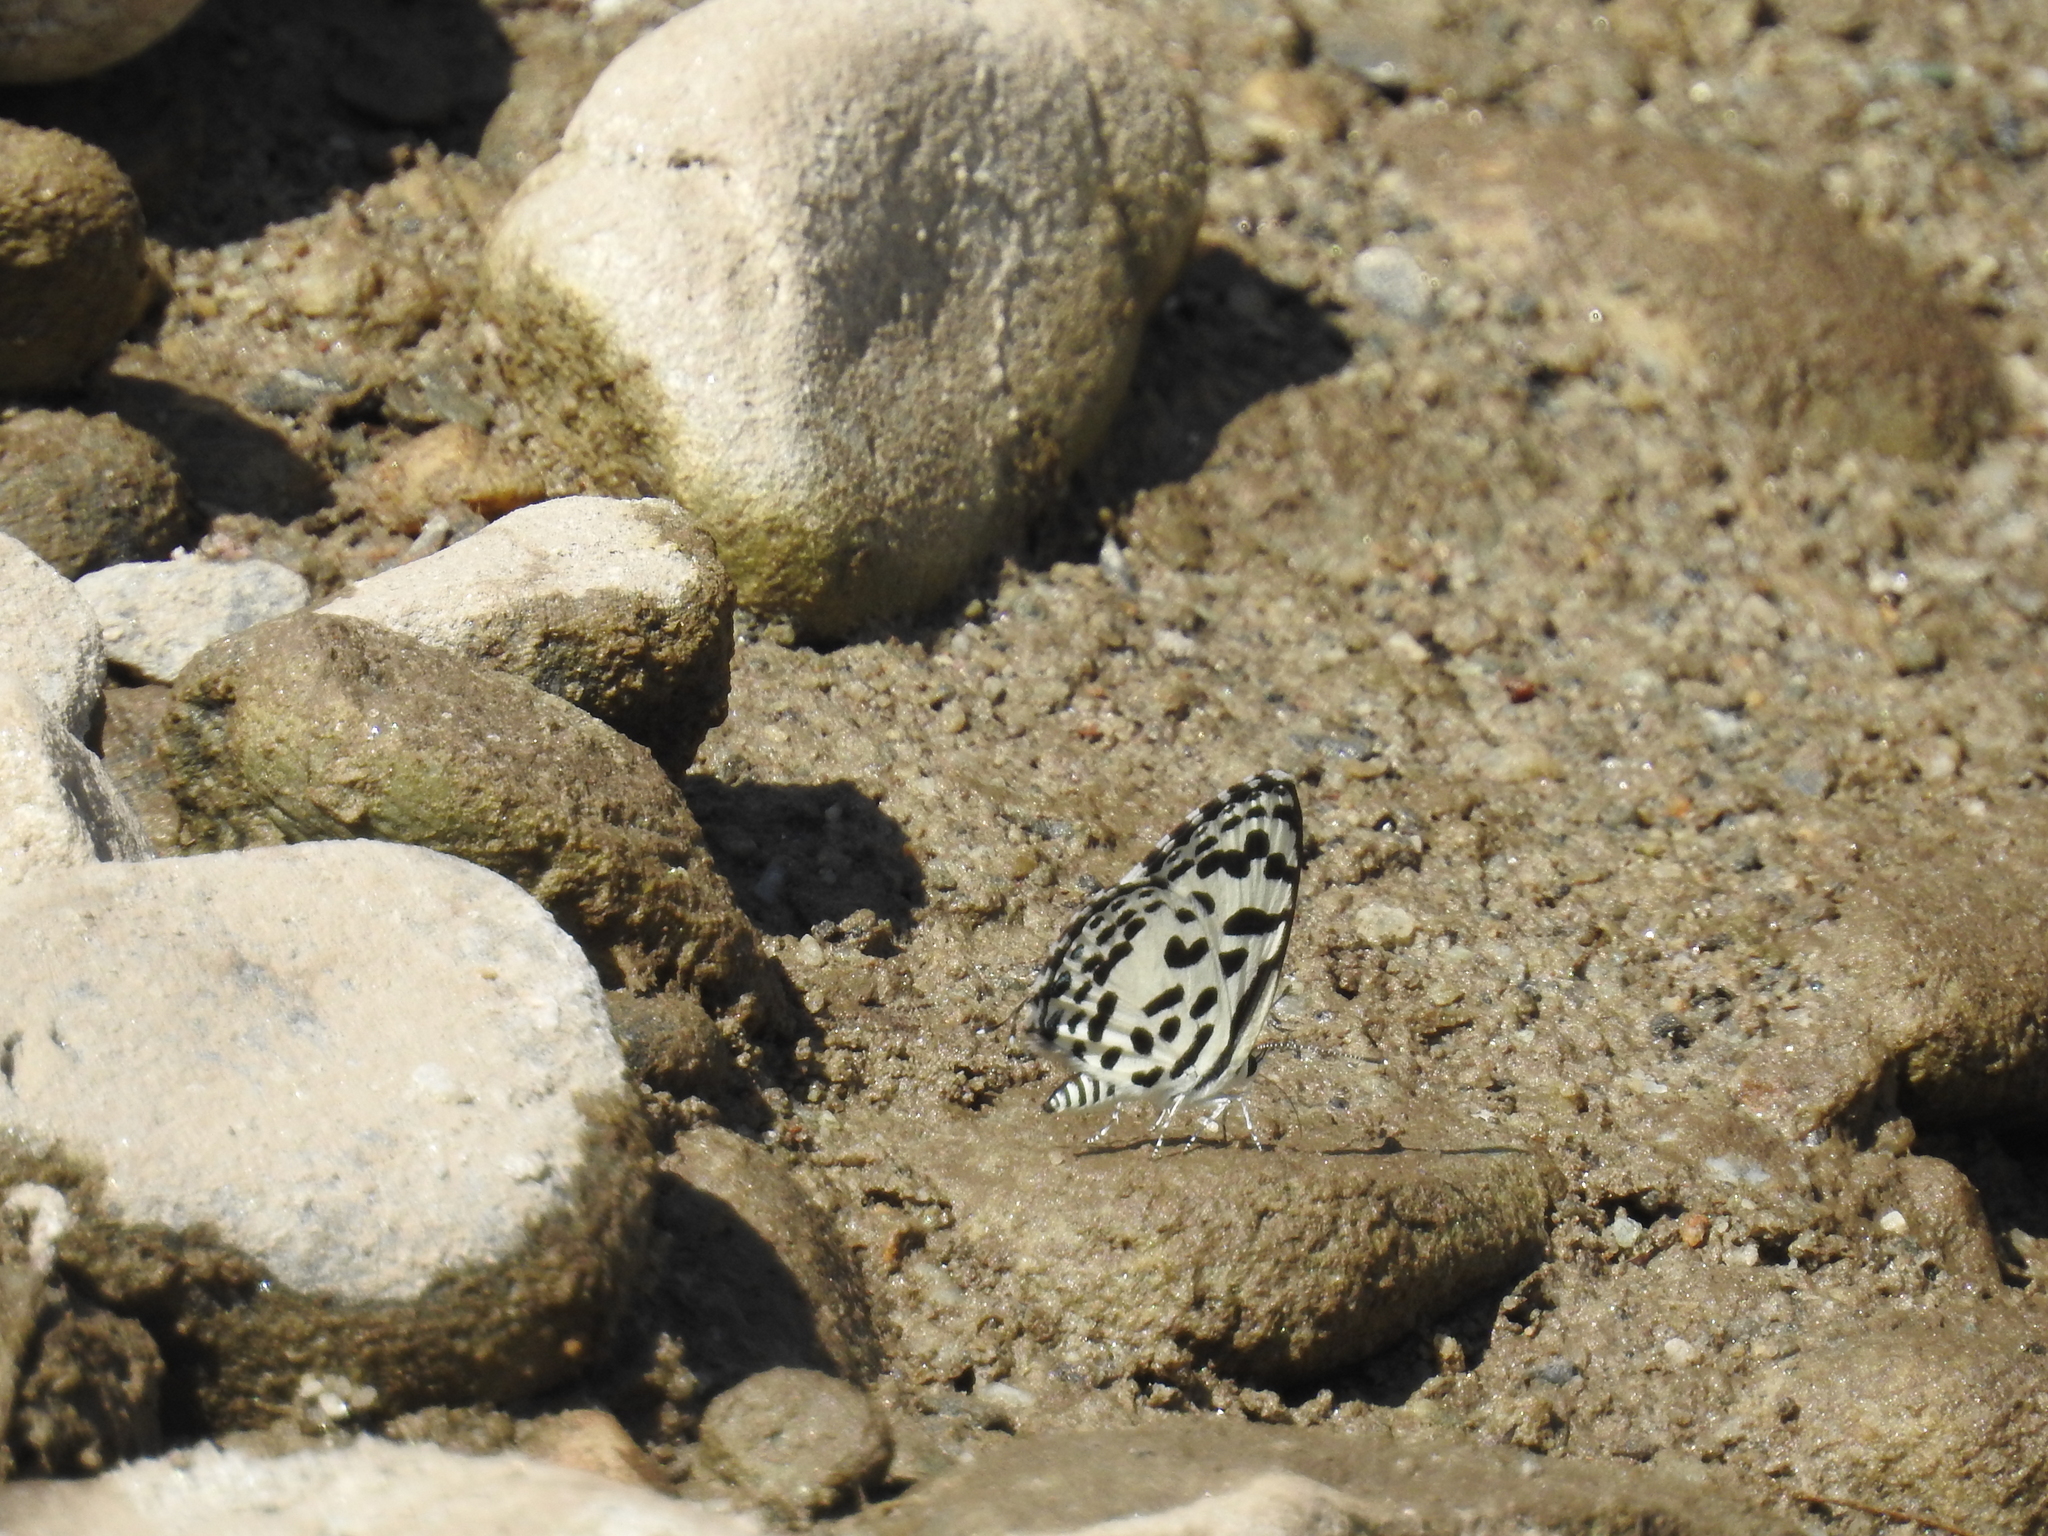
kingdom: Animalia
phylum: Arthropoda
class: Insecta
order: Lepidoptera
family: Lycaenidae
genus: Castalius
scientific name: Castalius rosimon
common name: Common pierrot
